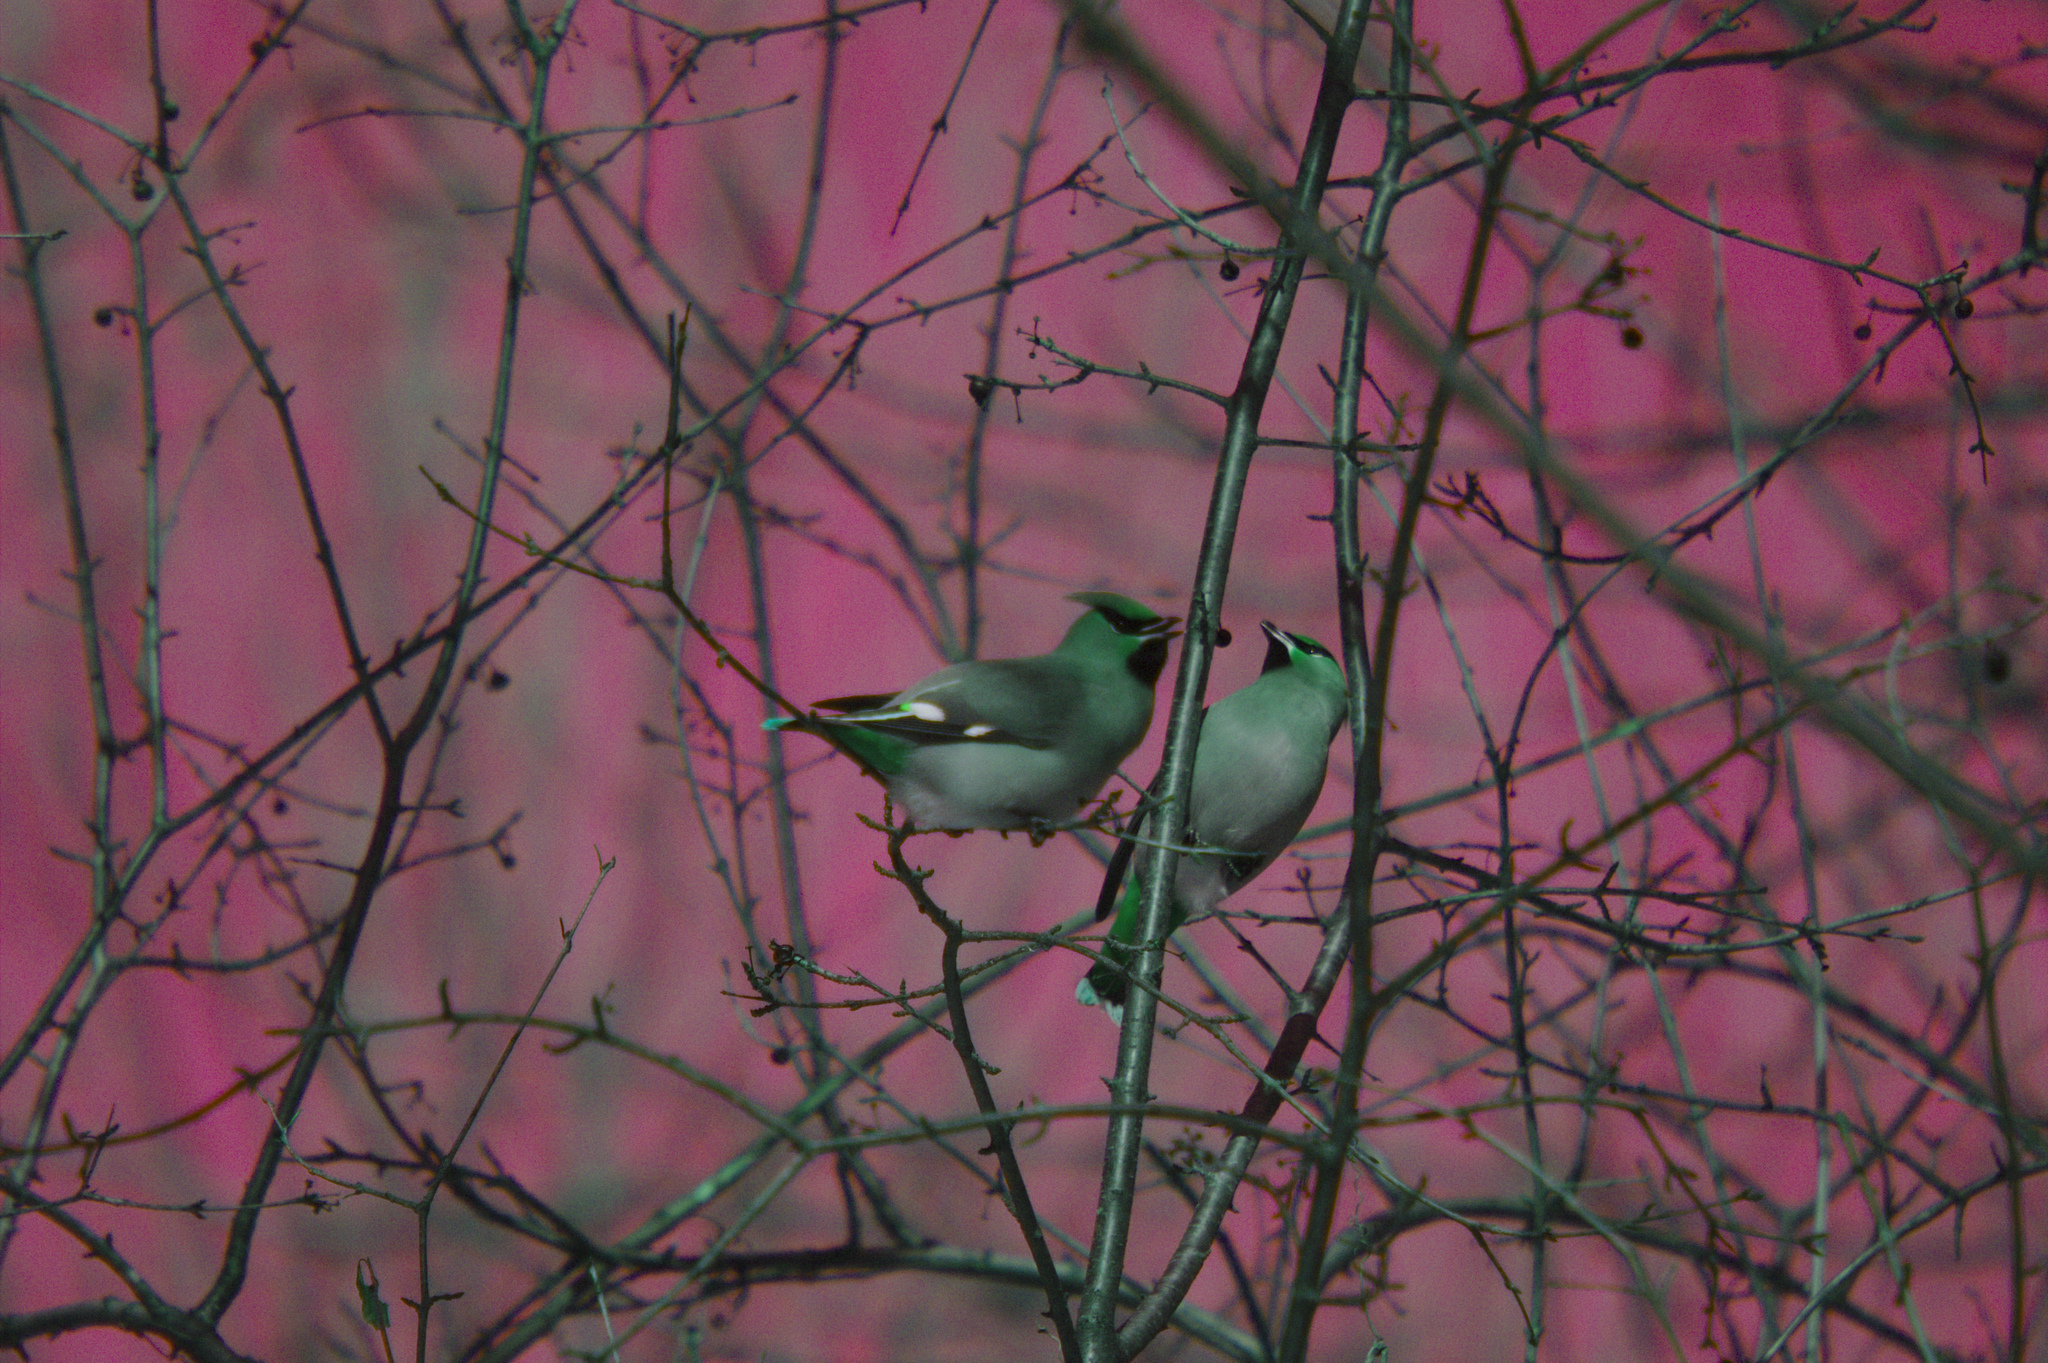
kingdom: Animalia
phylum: Chordata
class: Aves
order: Passeriformes
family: Bombycillidae
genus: Bombycilla
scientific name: Bombycilla garrulus
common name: Bohemian waxwing
